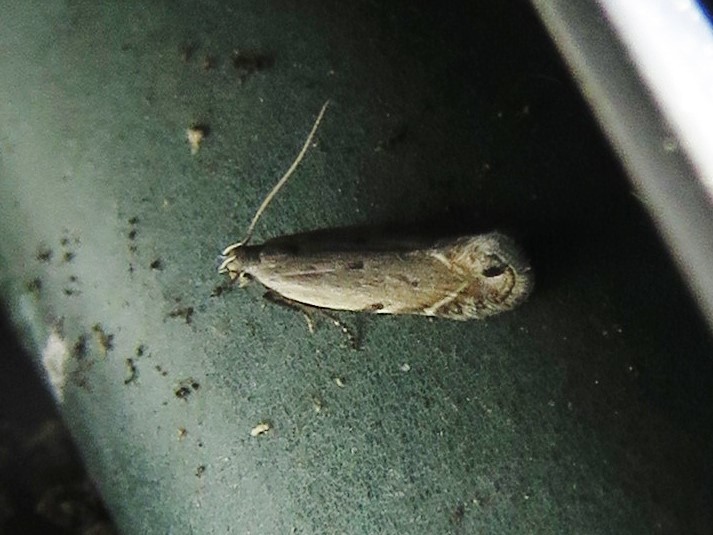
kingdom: Animalia
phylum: Arthropoda
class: Insecta
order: Lepidoptera
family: Gelechiidae
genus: Battaristis
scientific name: Battaristis nigratomella
